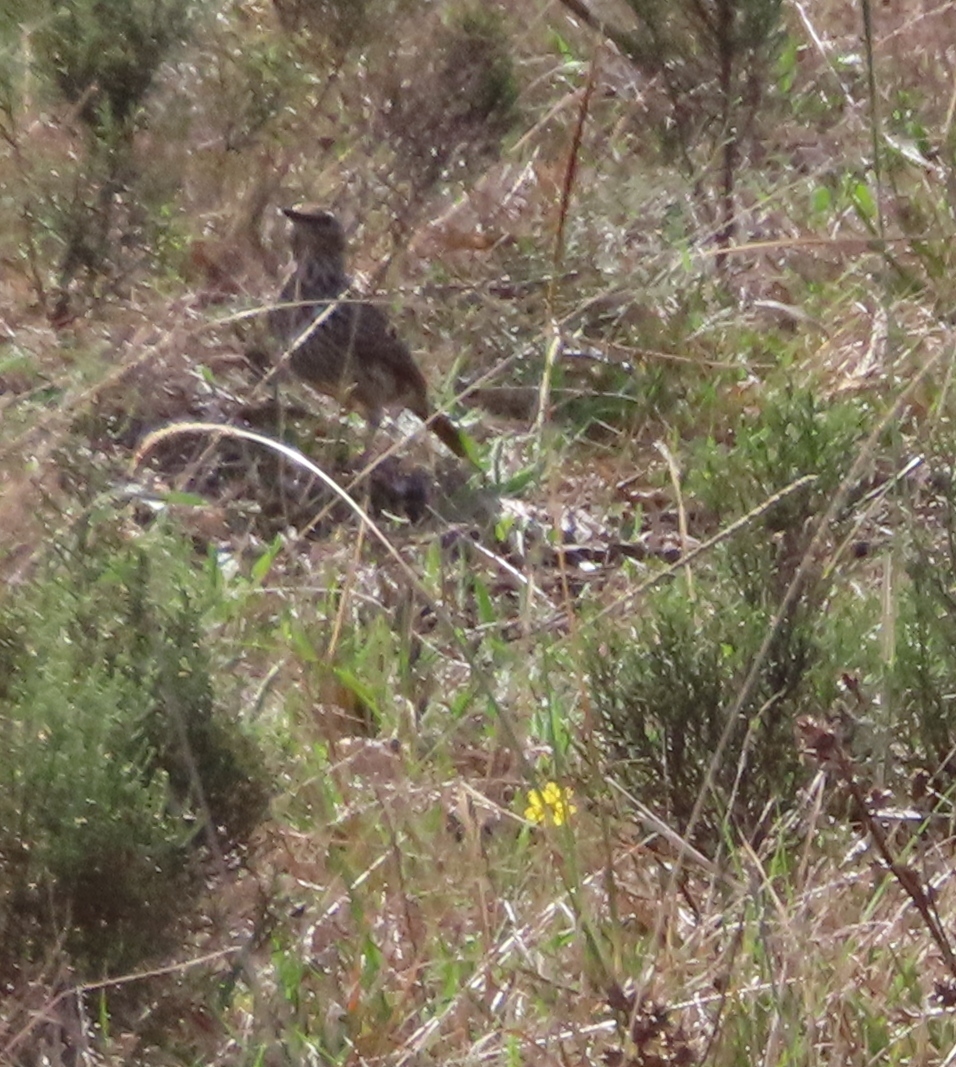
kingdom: Animalia
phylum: Chordata
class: Aves
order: Passeriformes
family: Alaudidae
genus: Certhilauda
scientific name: Certhilauda curvirostris
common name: Cape long-billed lark
